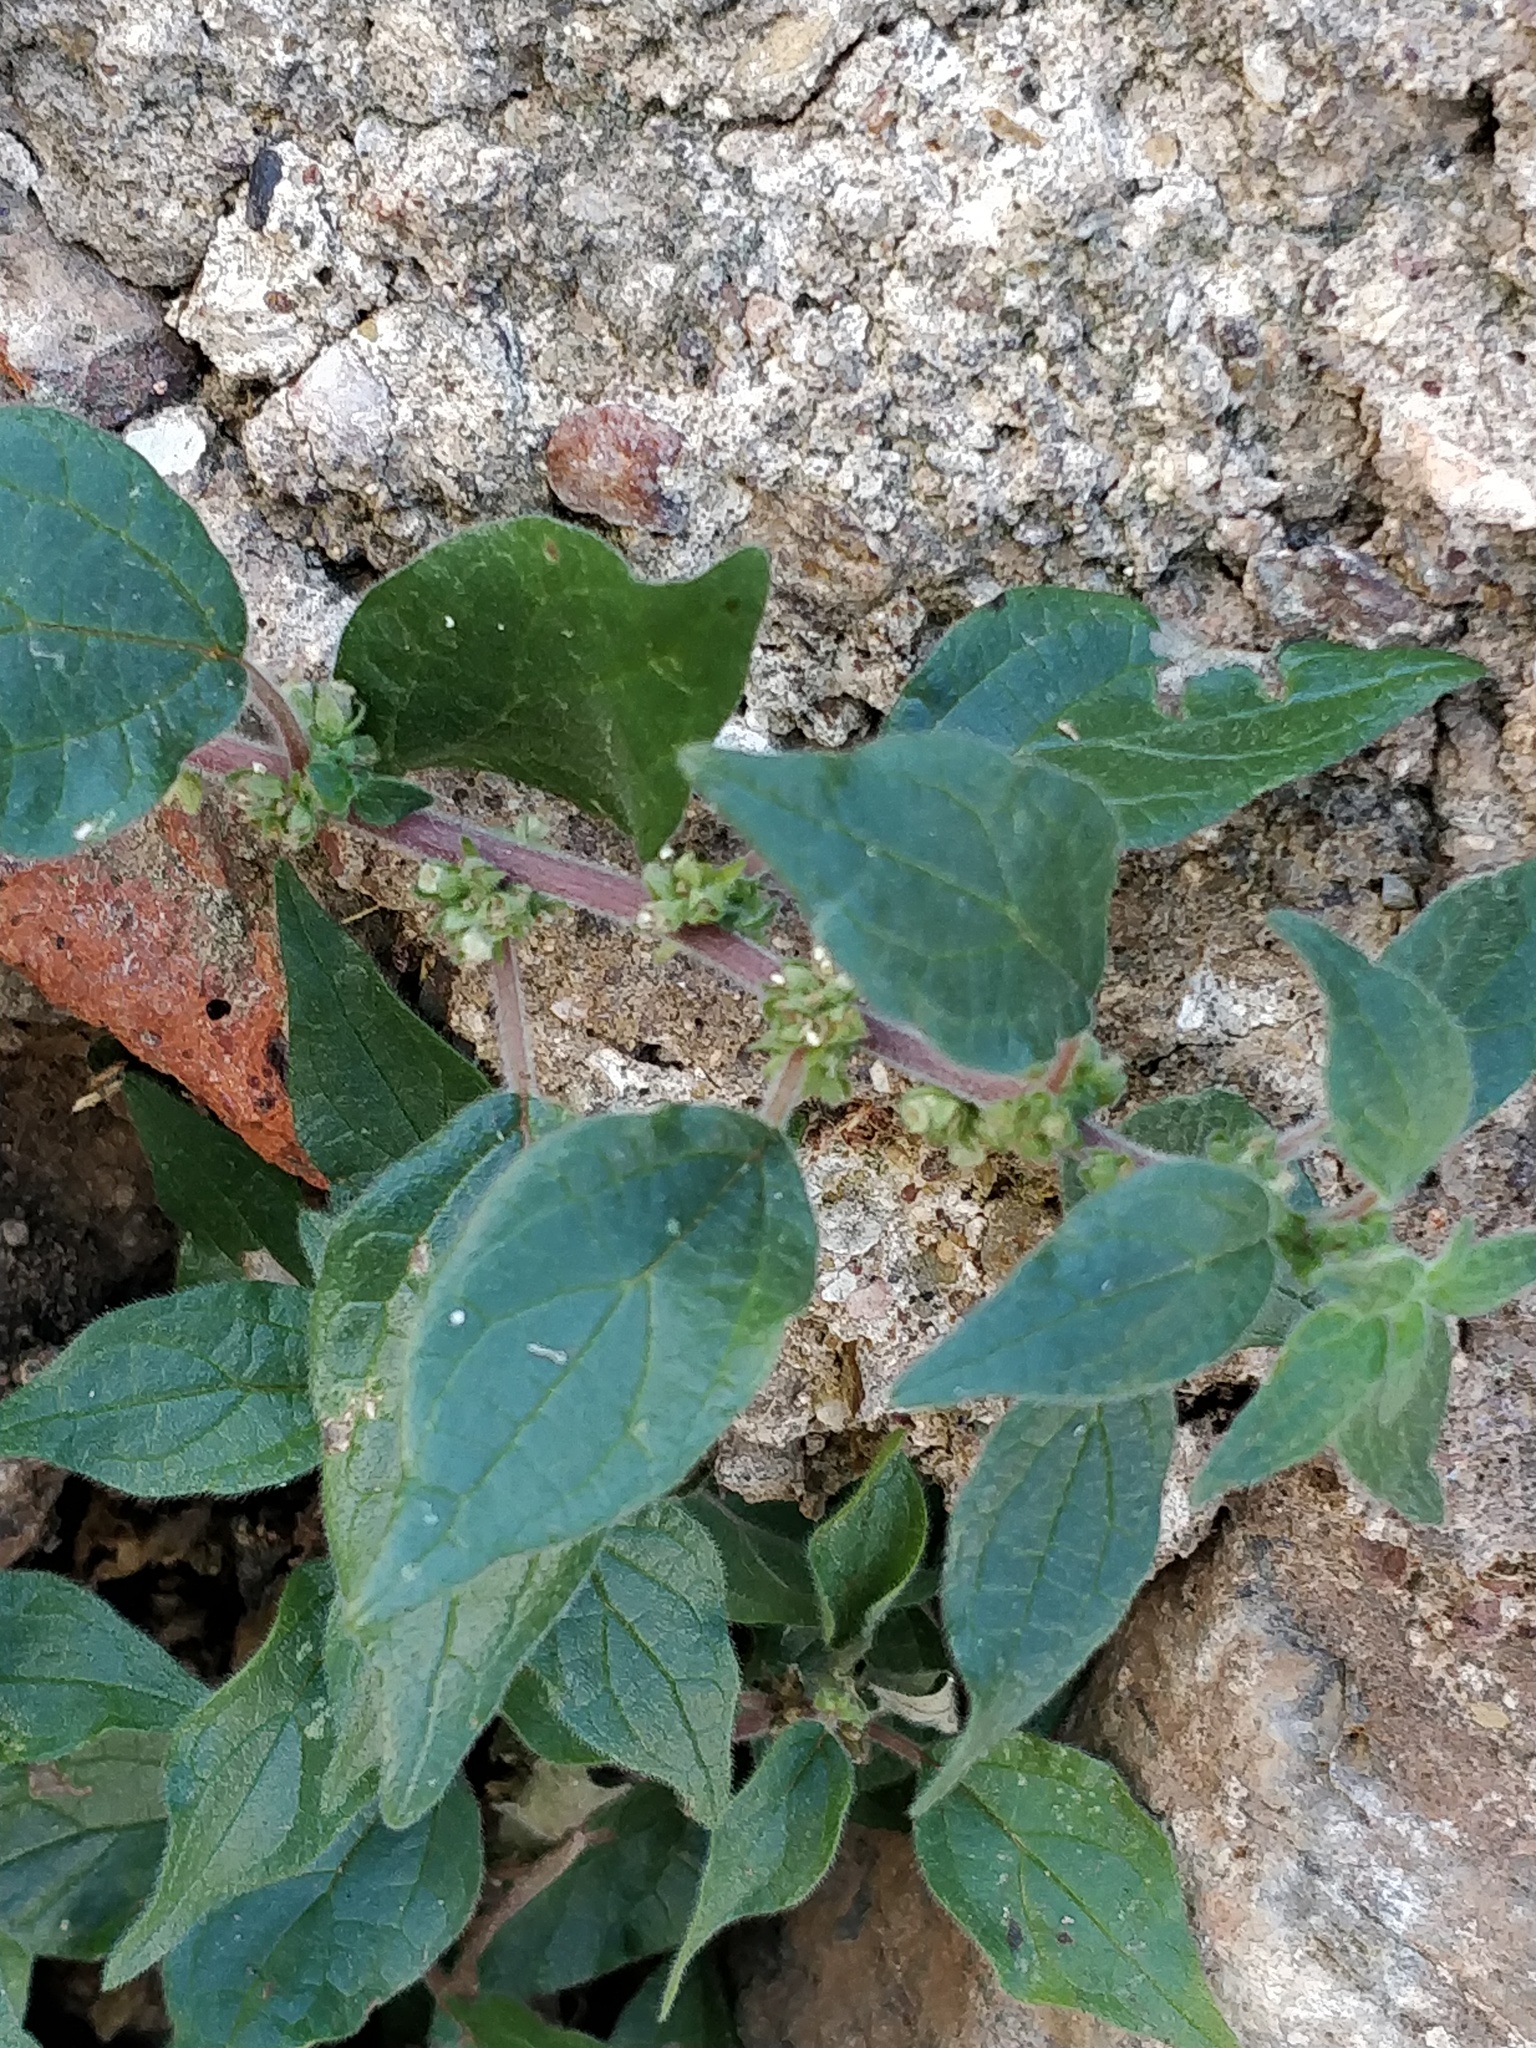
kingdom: Plantae
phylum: Tracheophyta
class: Magnoliopsida
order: Rosales
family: Urticaceae
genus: Parietaria
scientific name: Parietaria judaica
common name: Pellitory-of-the-wall
